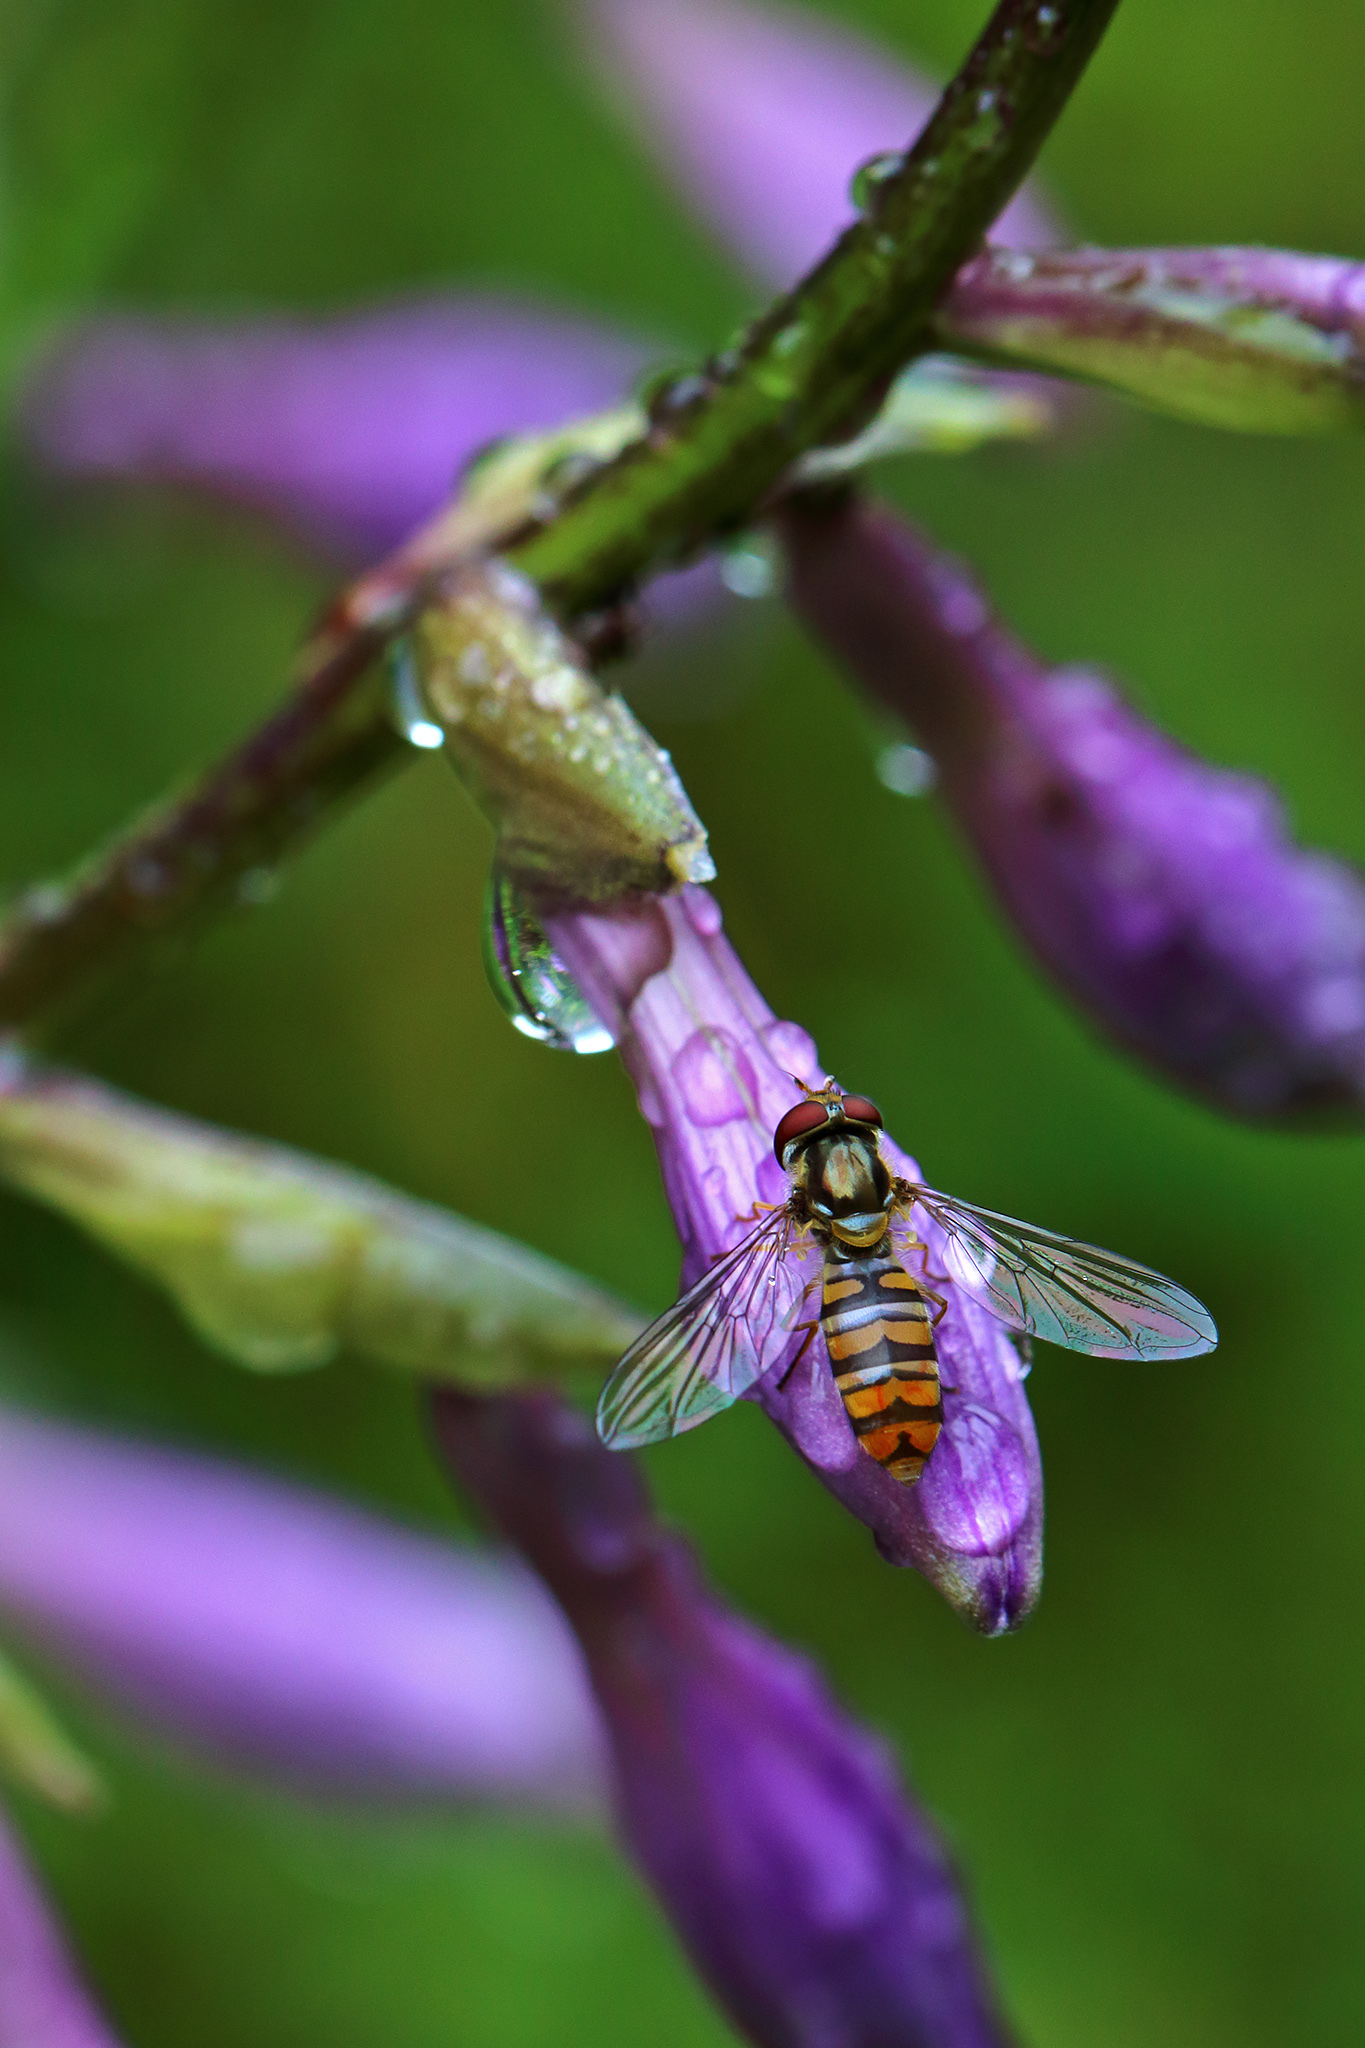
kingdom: Animalia
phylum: Arthropoda
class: Insecta
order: Diptera
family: Syrphidae
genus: Episyrphus
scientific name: Episyrphus balteatus
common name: Marmalade hoverfly
